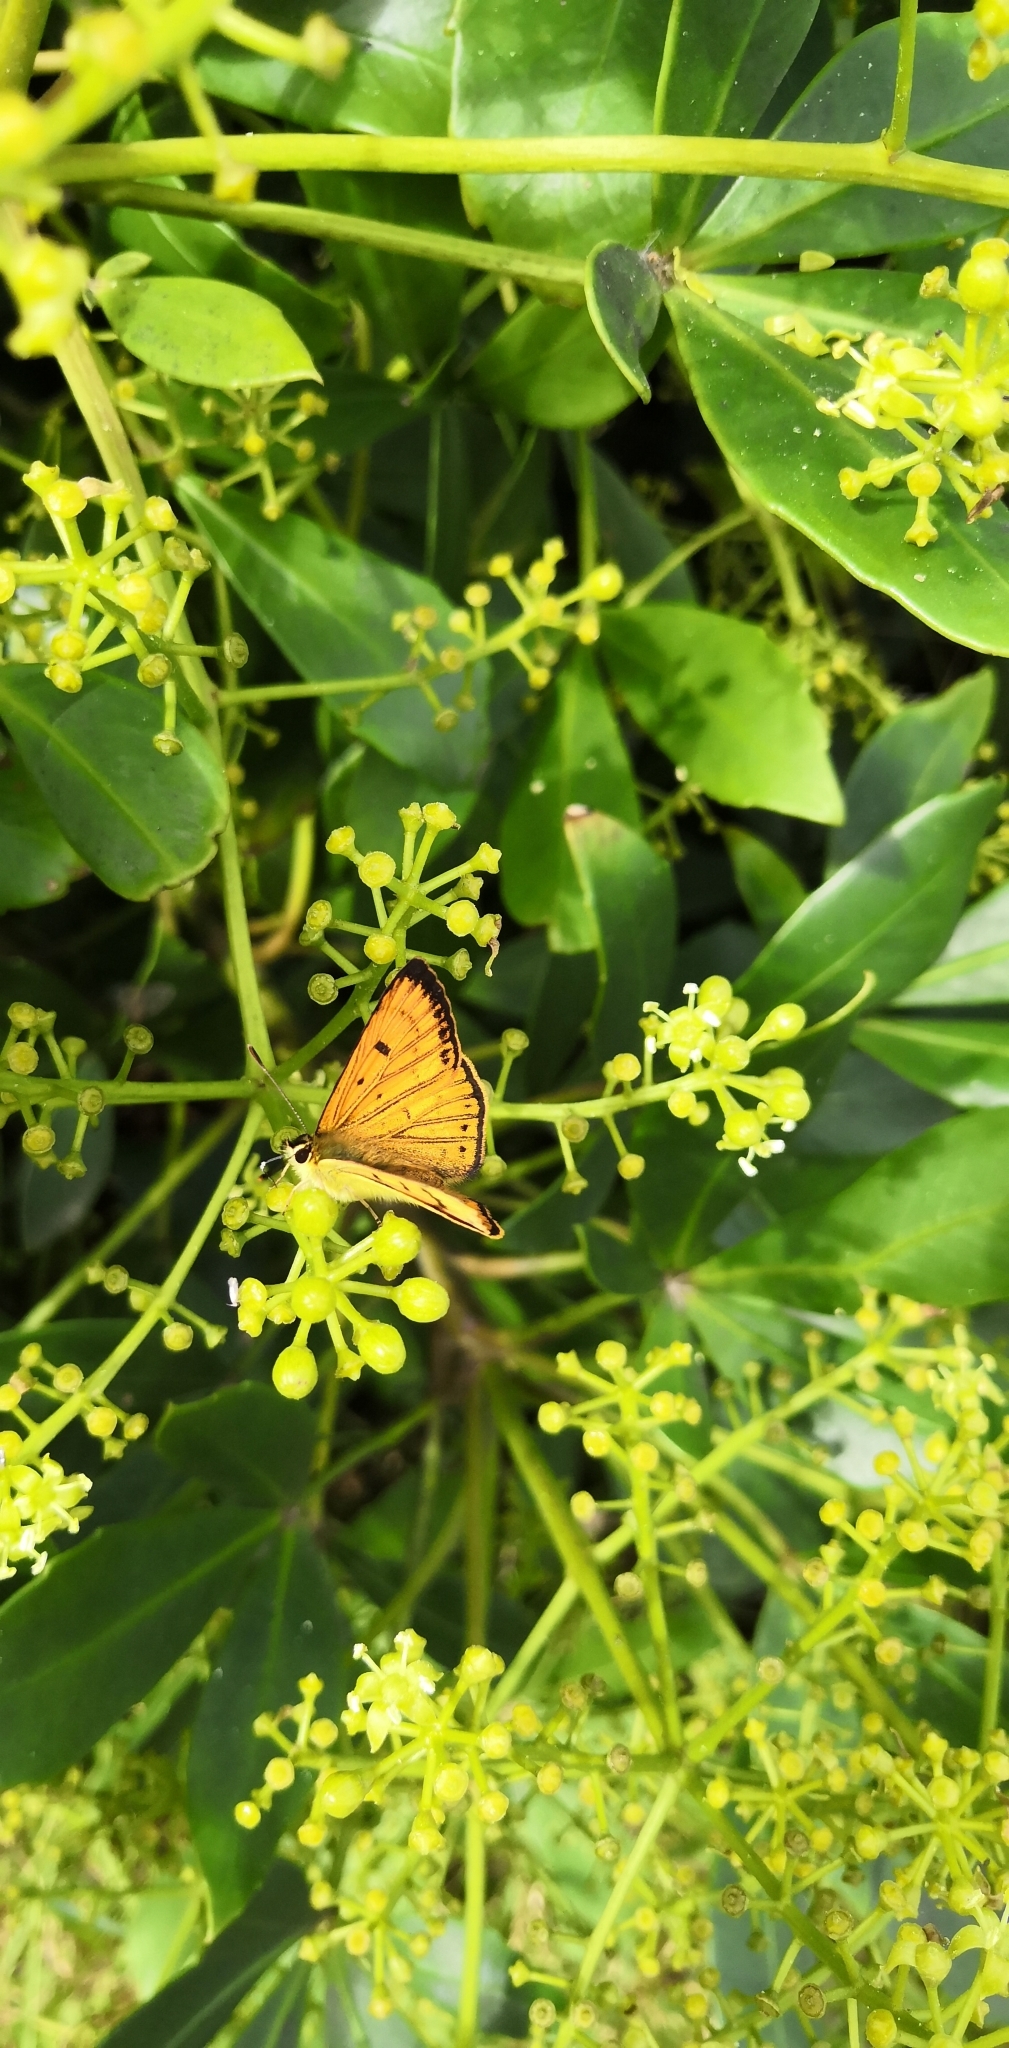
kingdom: Animalia
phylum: Arthropoda
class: Insecta
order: Lepidoptera
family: Lycaenidae
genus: Lycaena
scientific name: Lycaena salustius
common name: North island coastal copper
